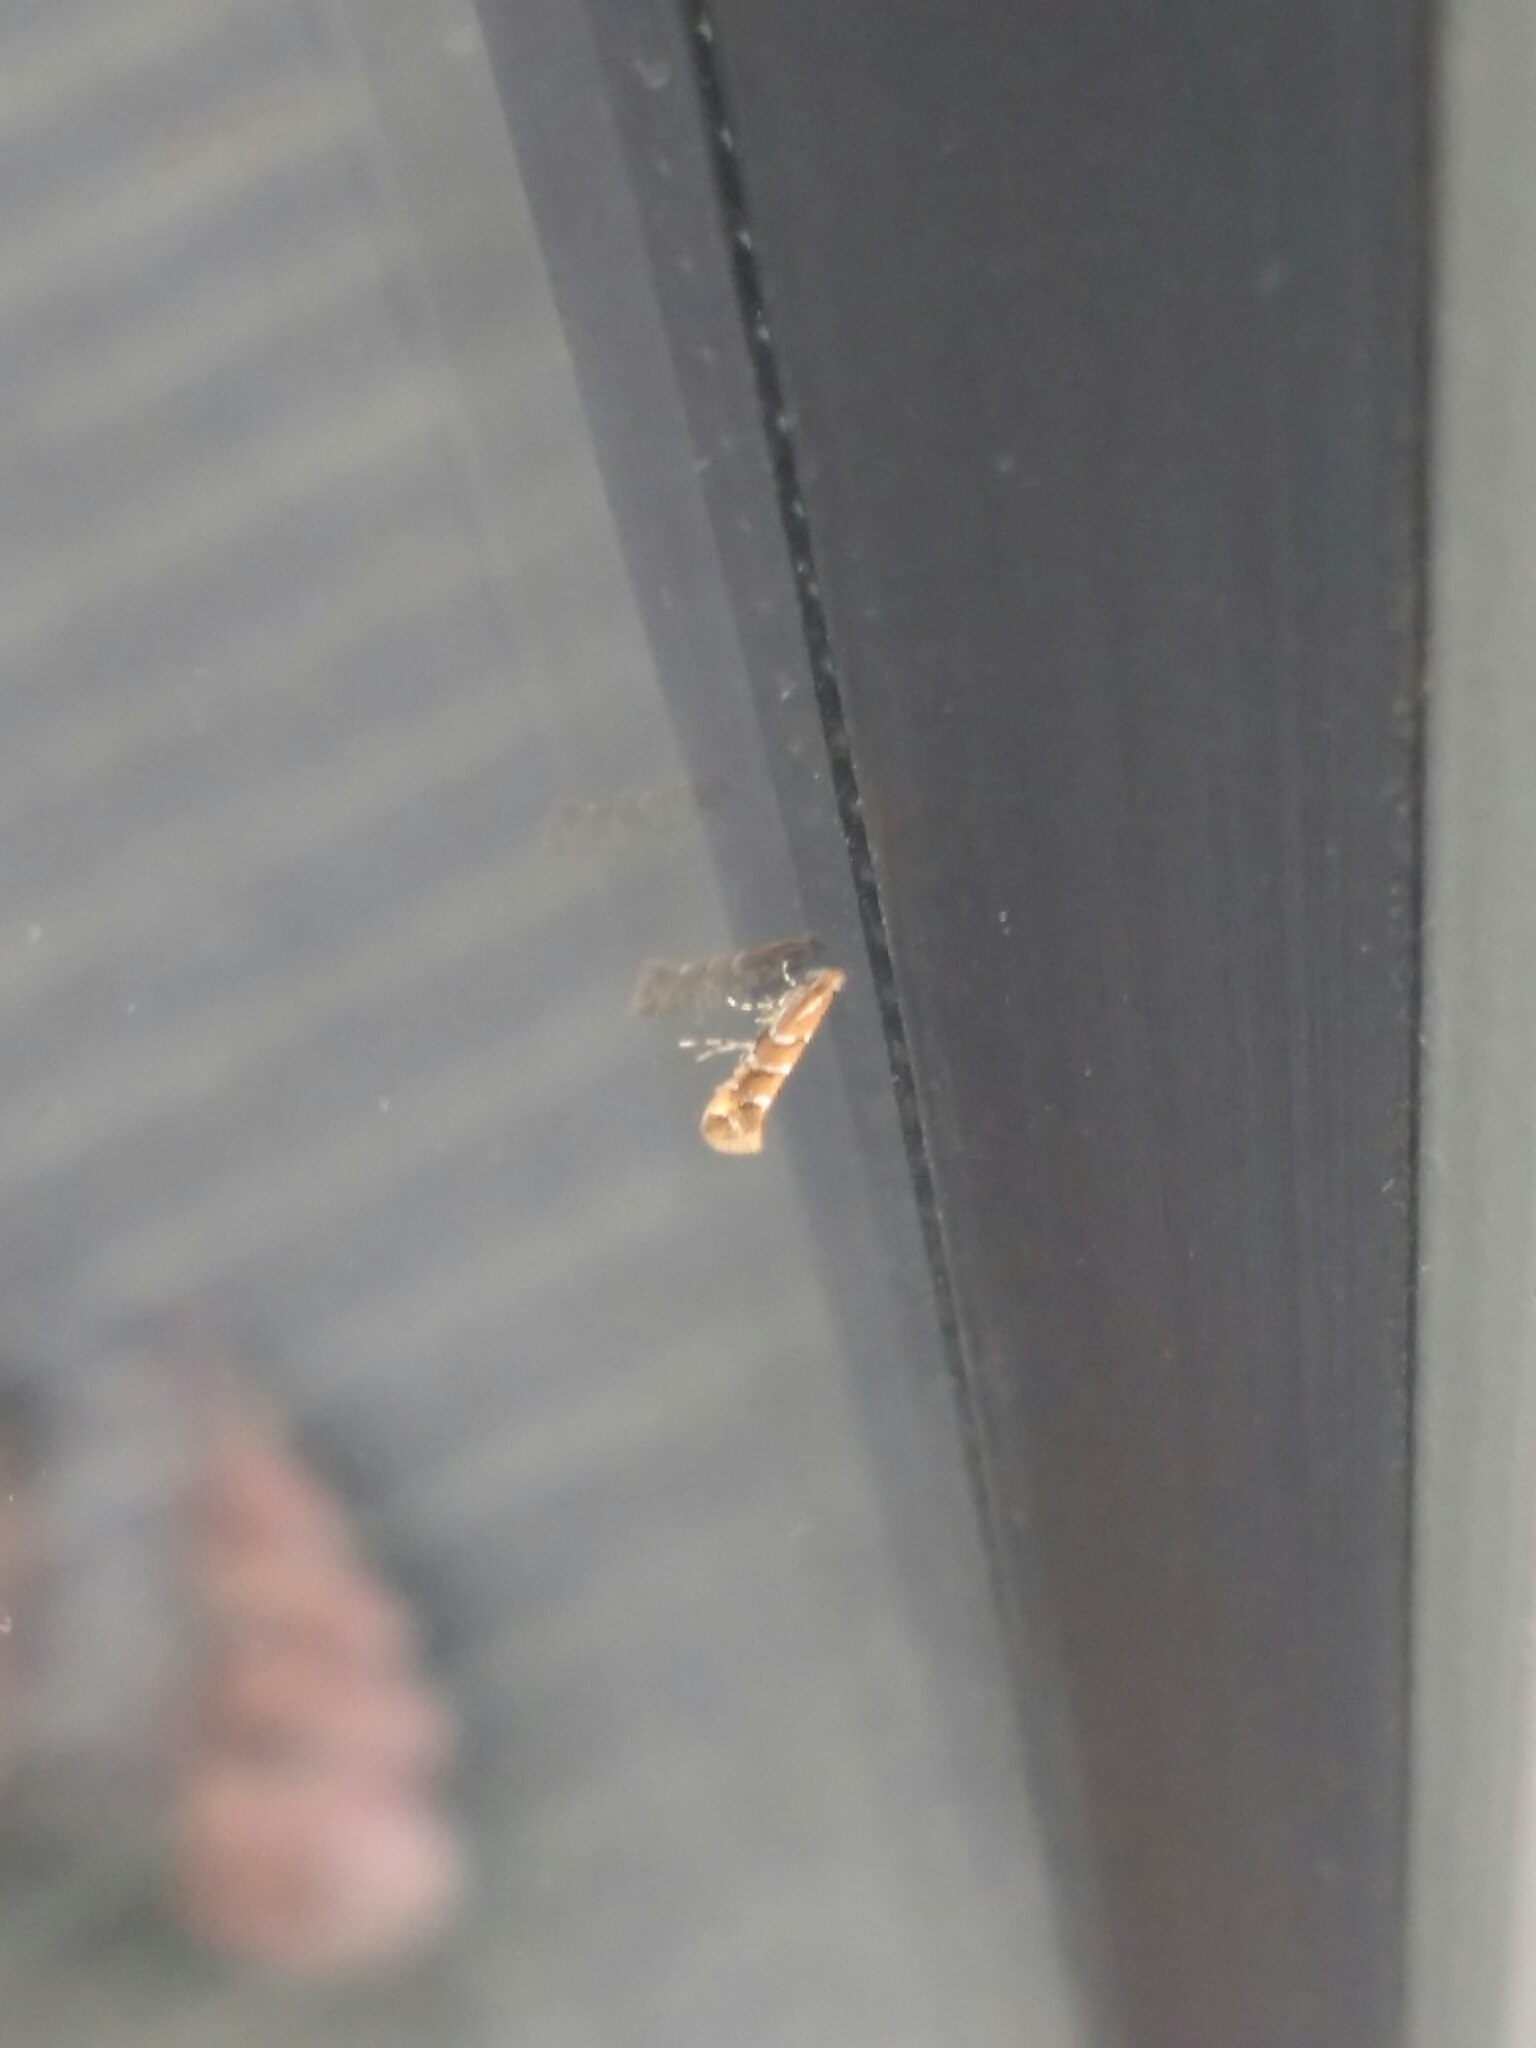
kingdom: Animalia
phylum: Arthropoda
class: Insecta
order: Lepidoptera
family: Gracillariidae
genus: Cameraria
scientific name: Cameraria ohridella
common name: Horse-chestnut leaf-miner
